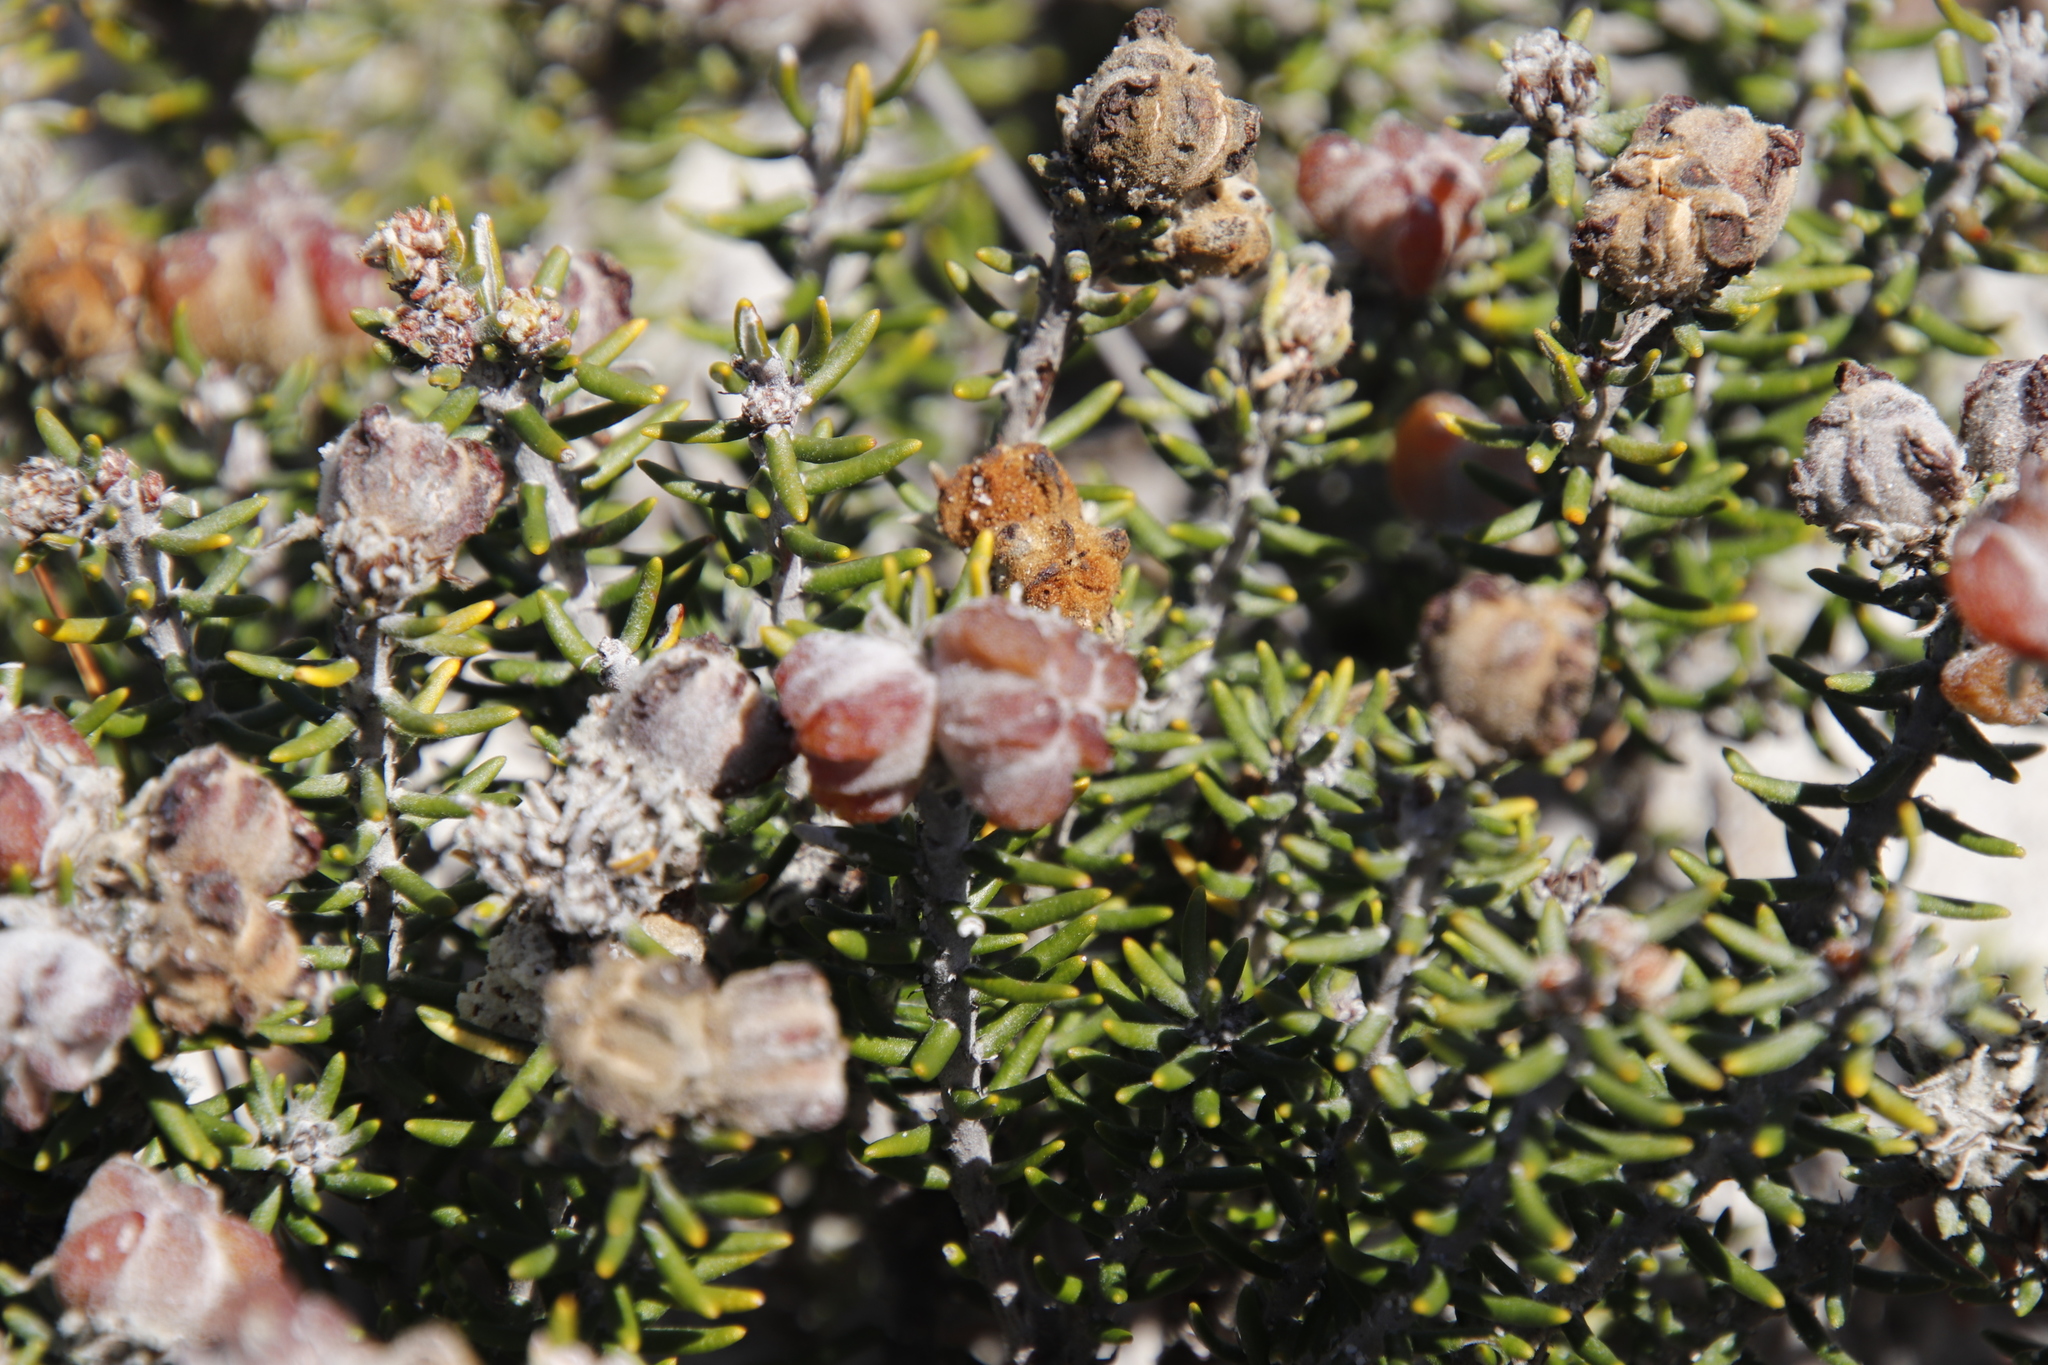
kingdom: Plantae
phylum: Tracheophyta
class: Magnoliopsida
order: Rosales
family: Rhamnaceae
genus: Trichocephalus
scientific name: Trichocephalus stipularis
